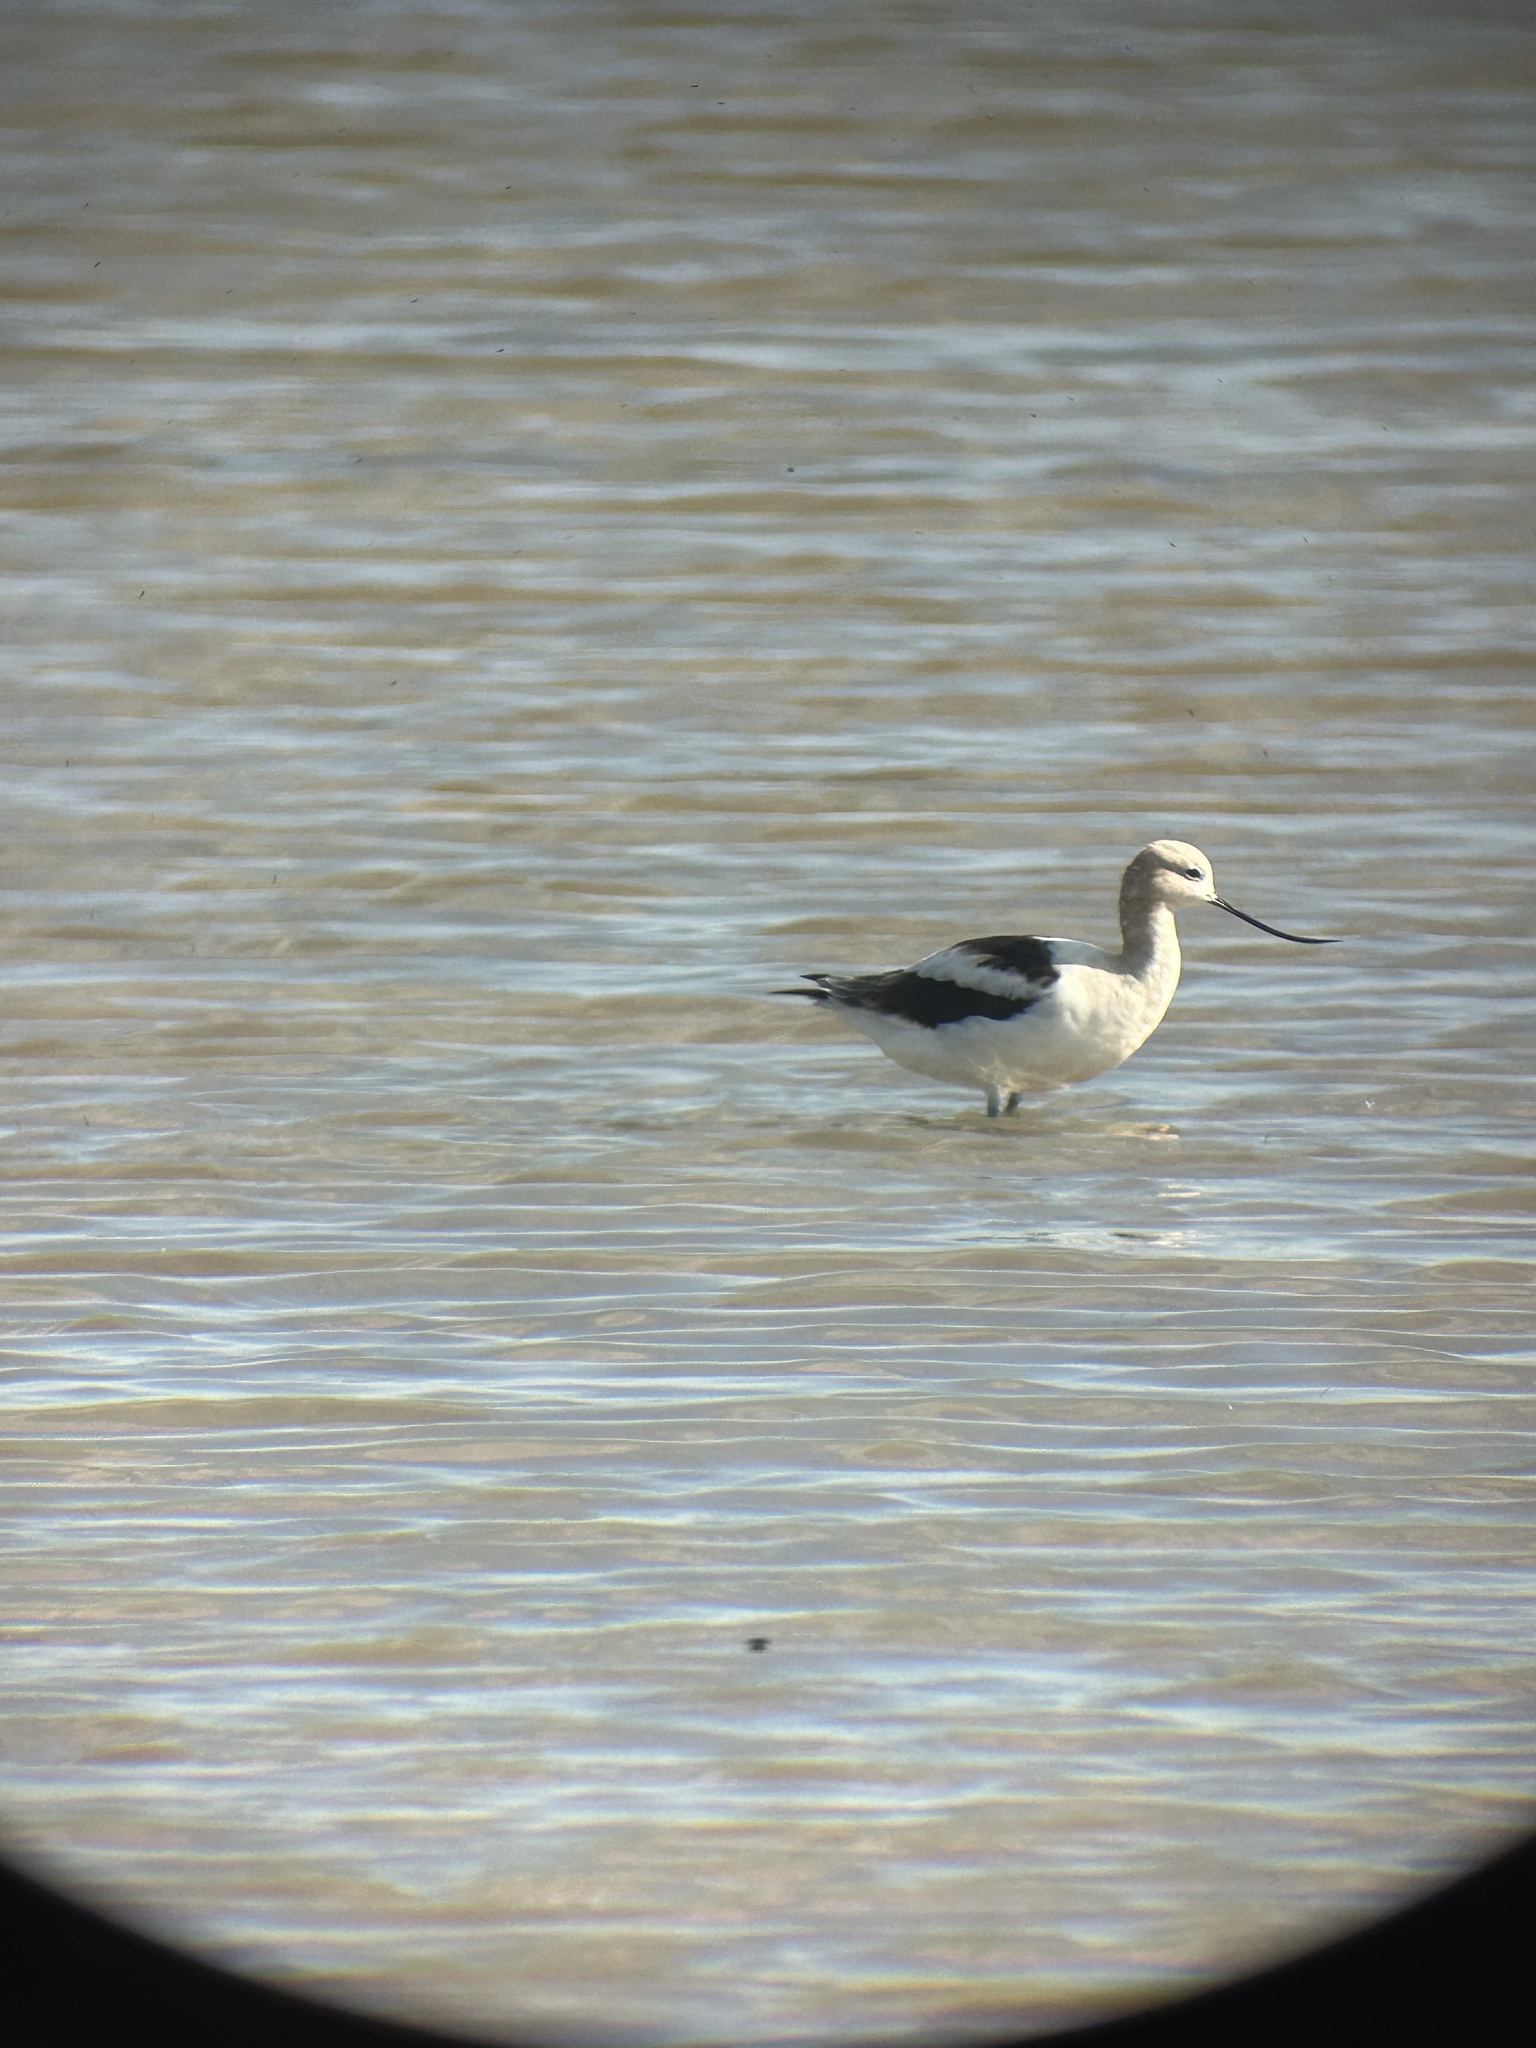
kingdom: Animalia
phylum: Chordata
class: Aves
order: Charadriiformes
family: Recurvirostridae
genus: Recurvirostra
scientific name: Recurvirostra americana
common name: American avocet
